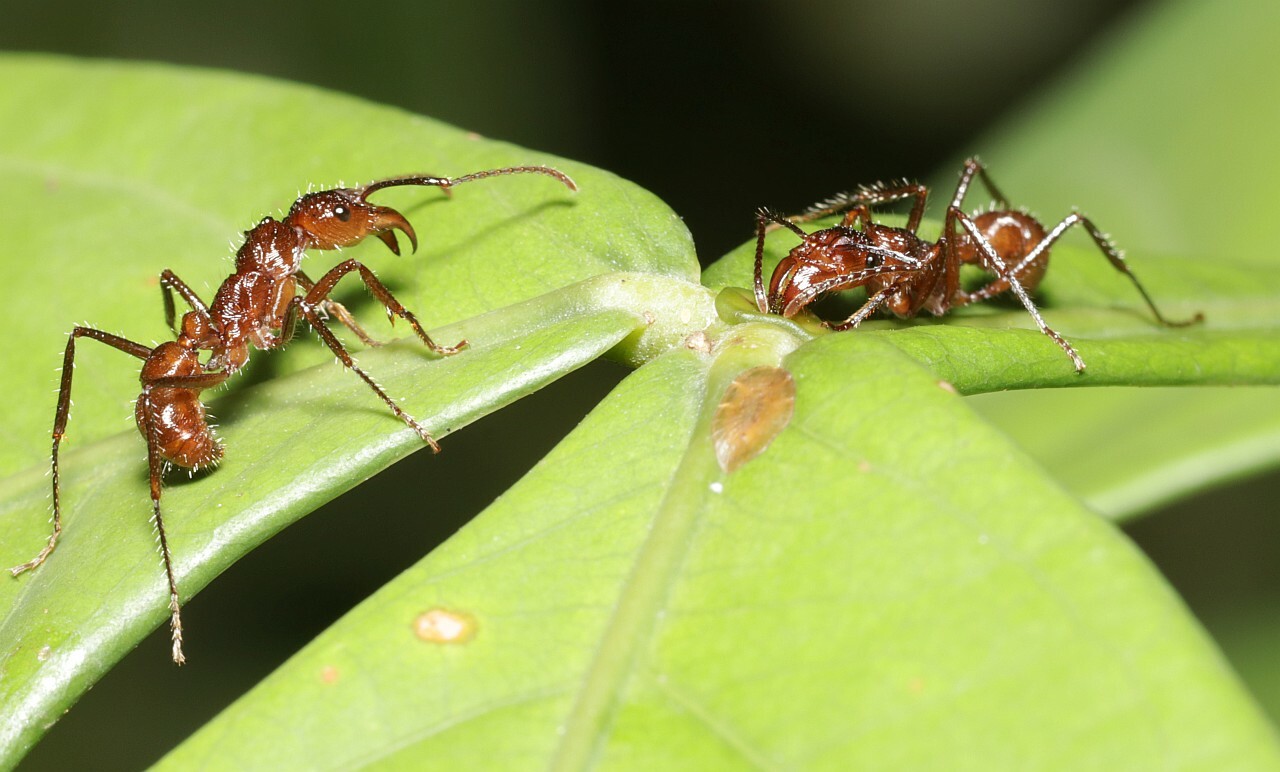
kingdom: Animalia
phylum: Arthropoda
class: Insecta
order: Hymenoptera
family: Formicidae
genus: Ectatomma
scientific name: Ectatomma tuberculatum
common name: Ant
